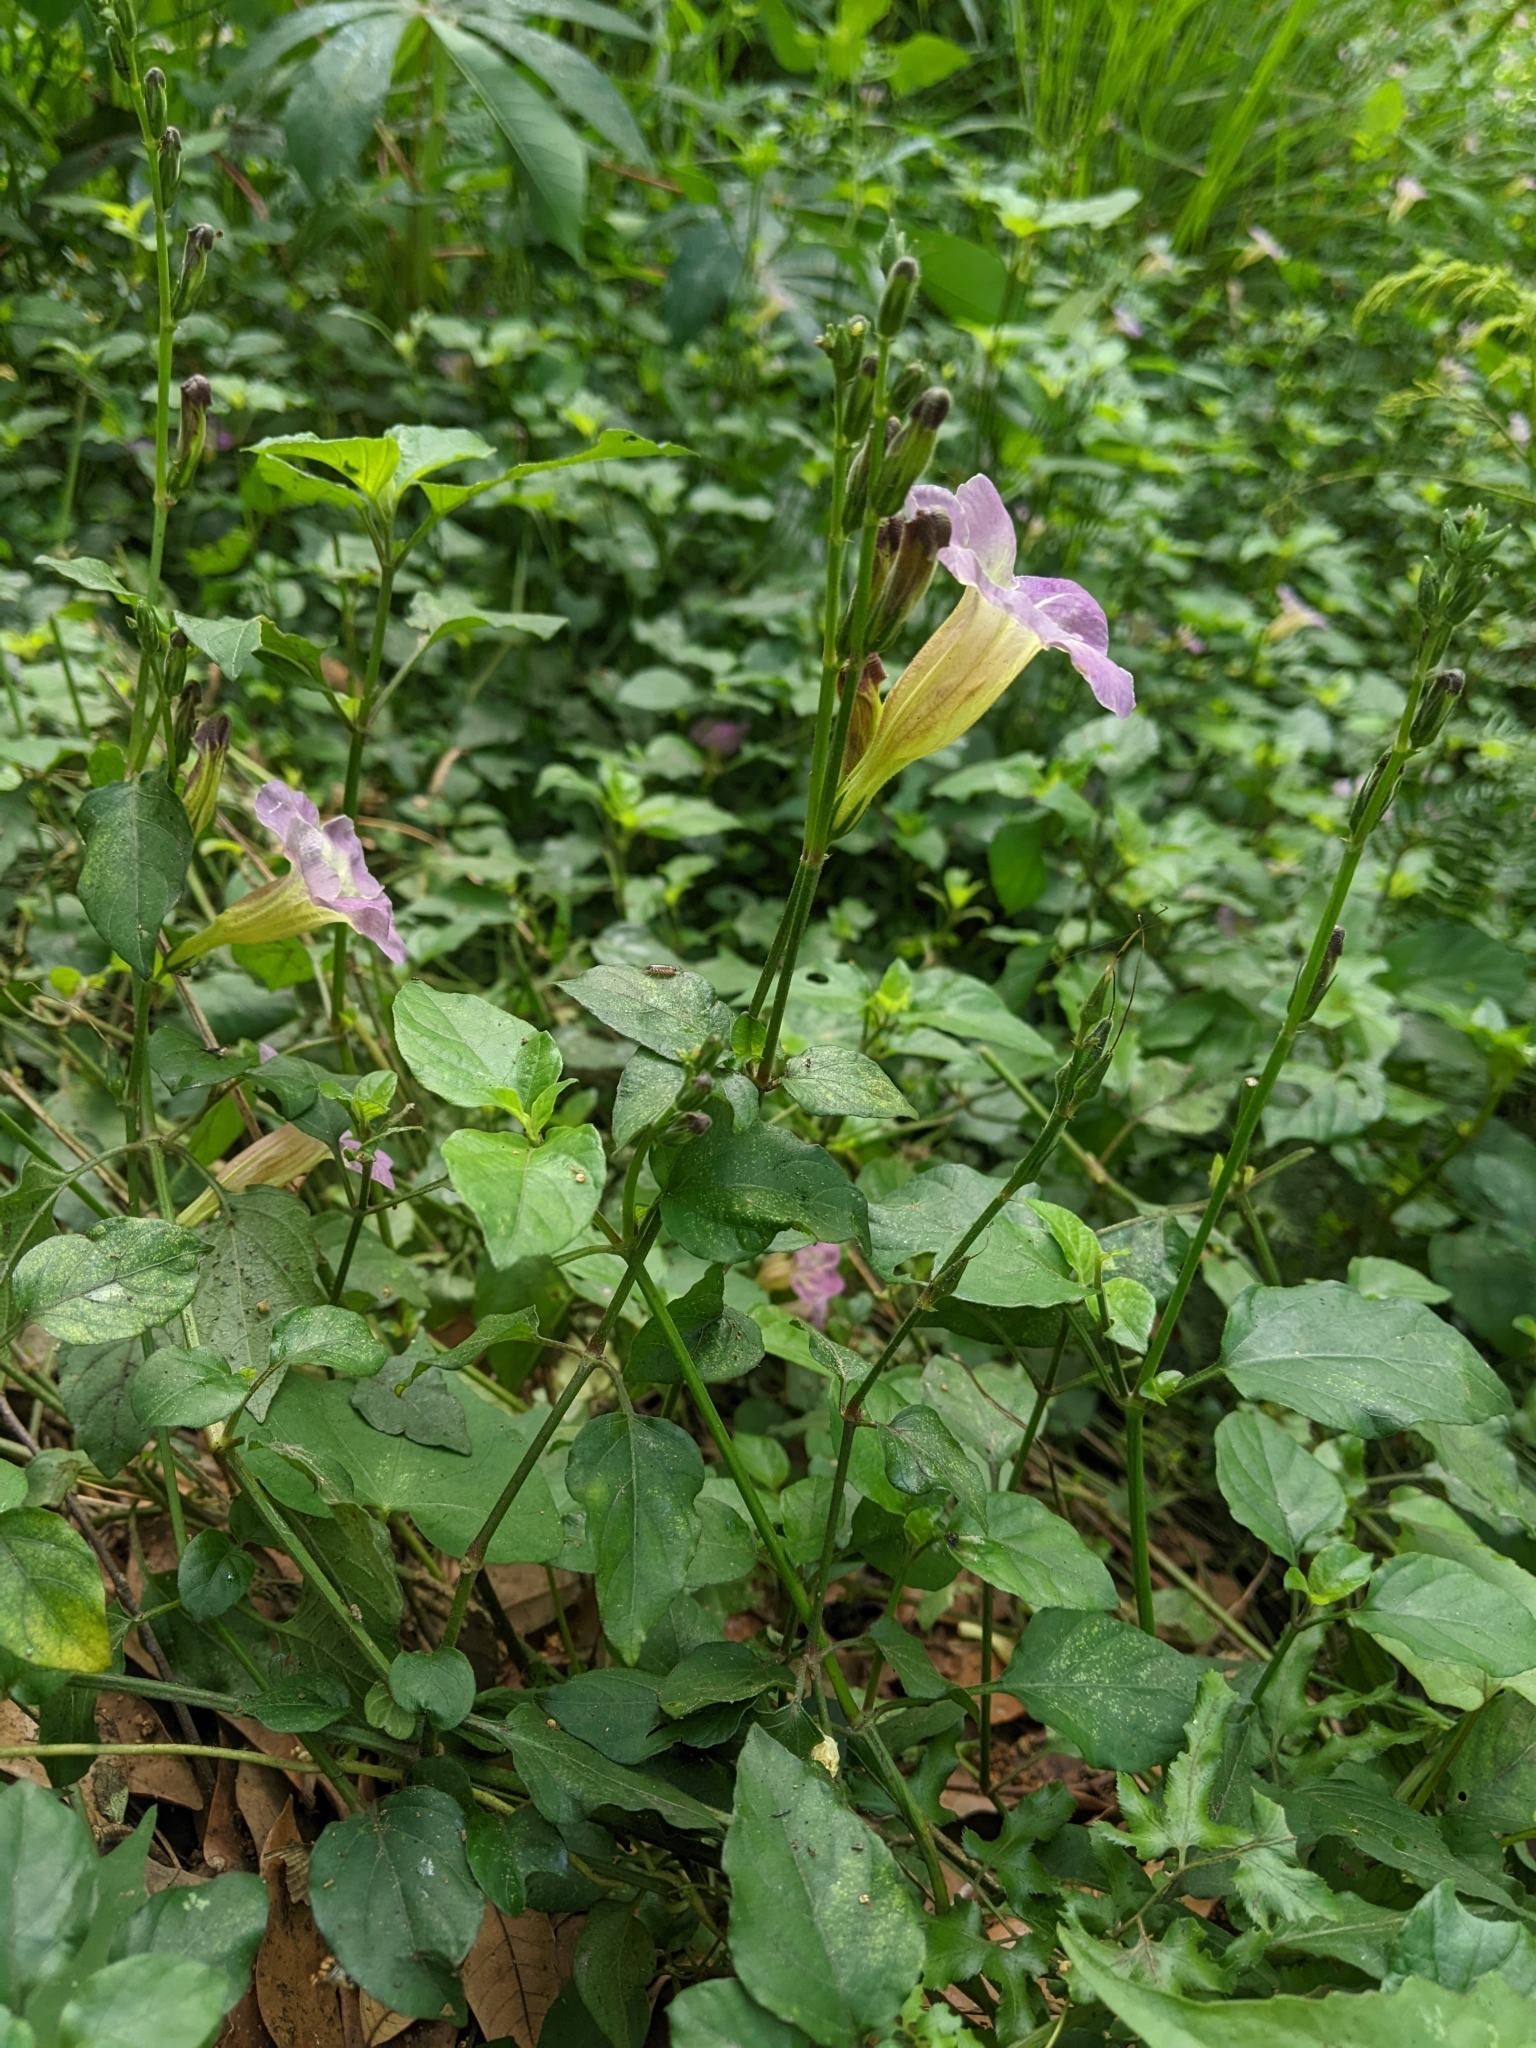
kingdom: Plantae
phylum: Tracheophyta
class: Magnoliopsida
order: Lamiales
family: Acanthaceae
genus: Asystasia
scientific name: Asystasia gangetica
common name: Chinese violet
